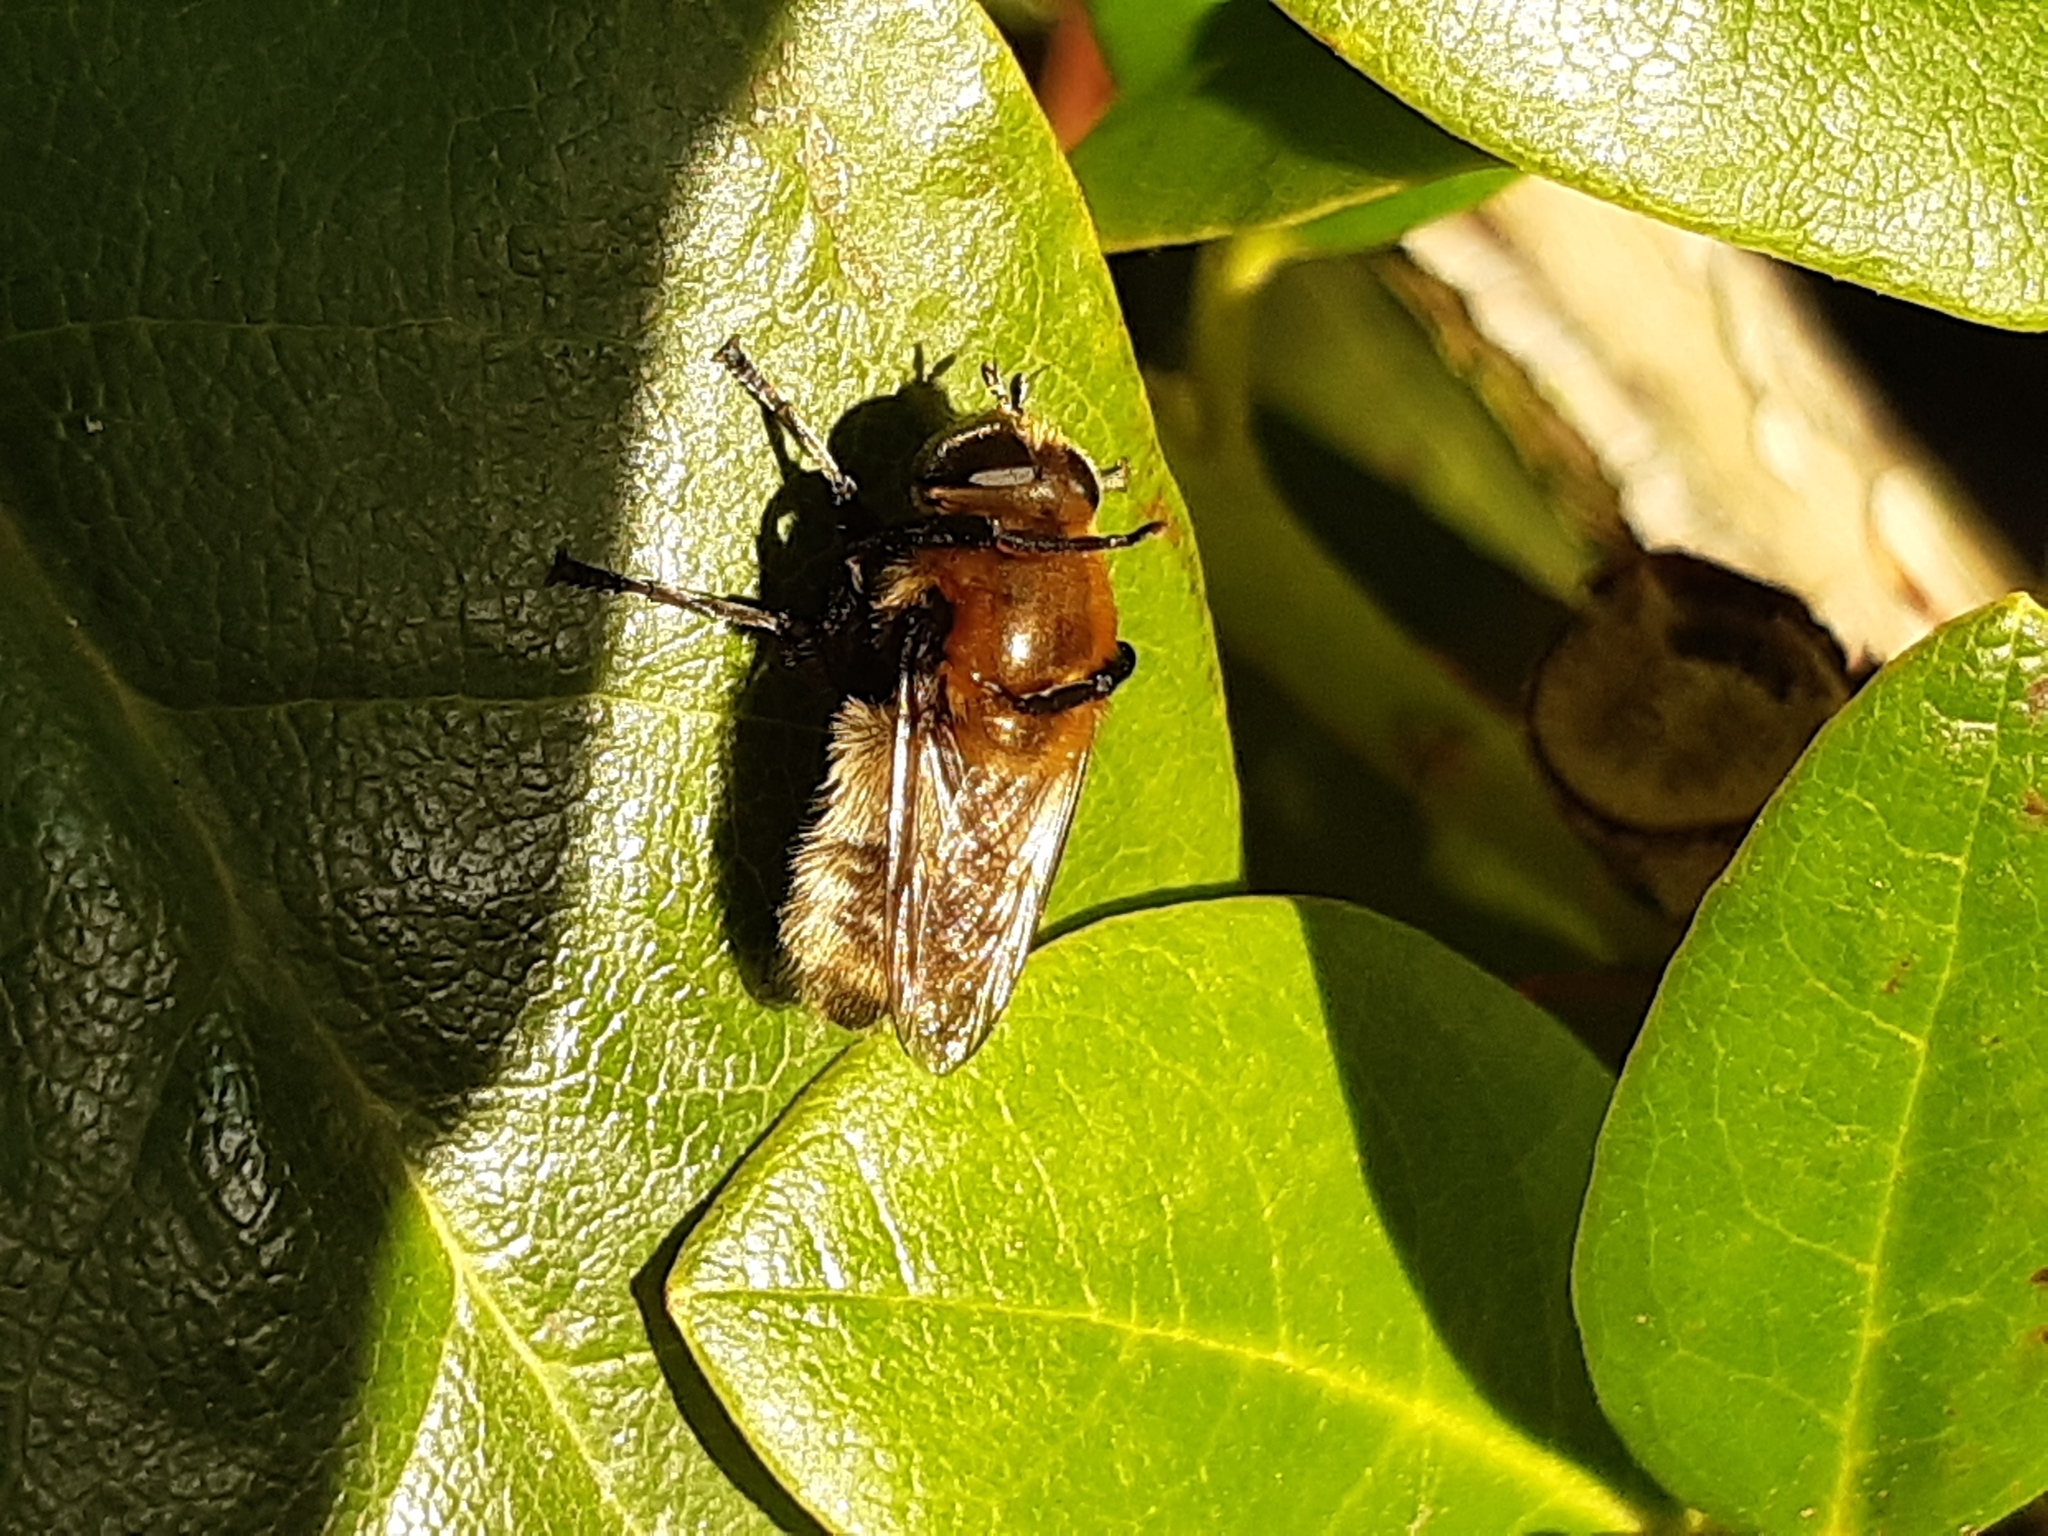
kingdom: Animalia
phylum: Arthropoda
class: Insecta
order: Diptera
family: Syrphidae
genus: Merodon
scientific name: Merodon equestris
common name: Greater bulb-fly
